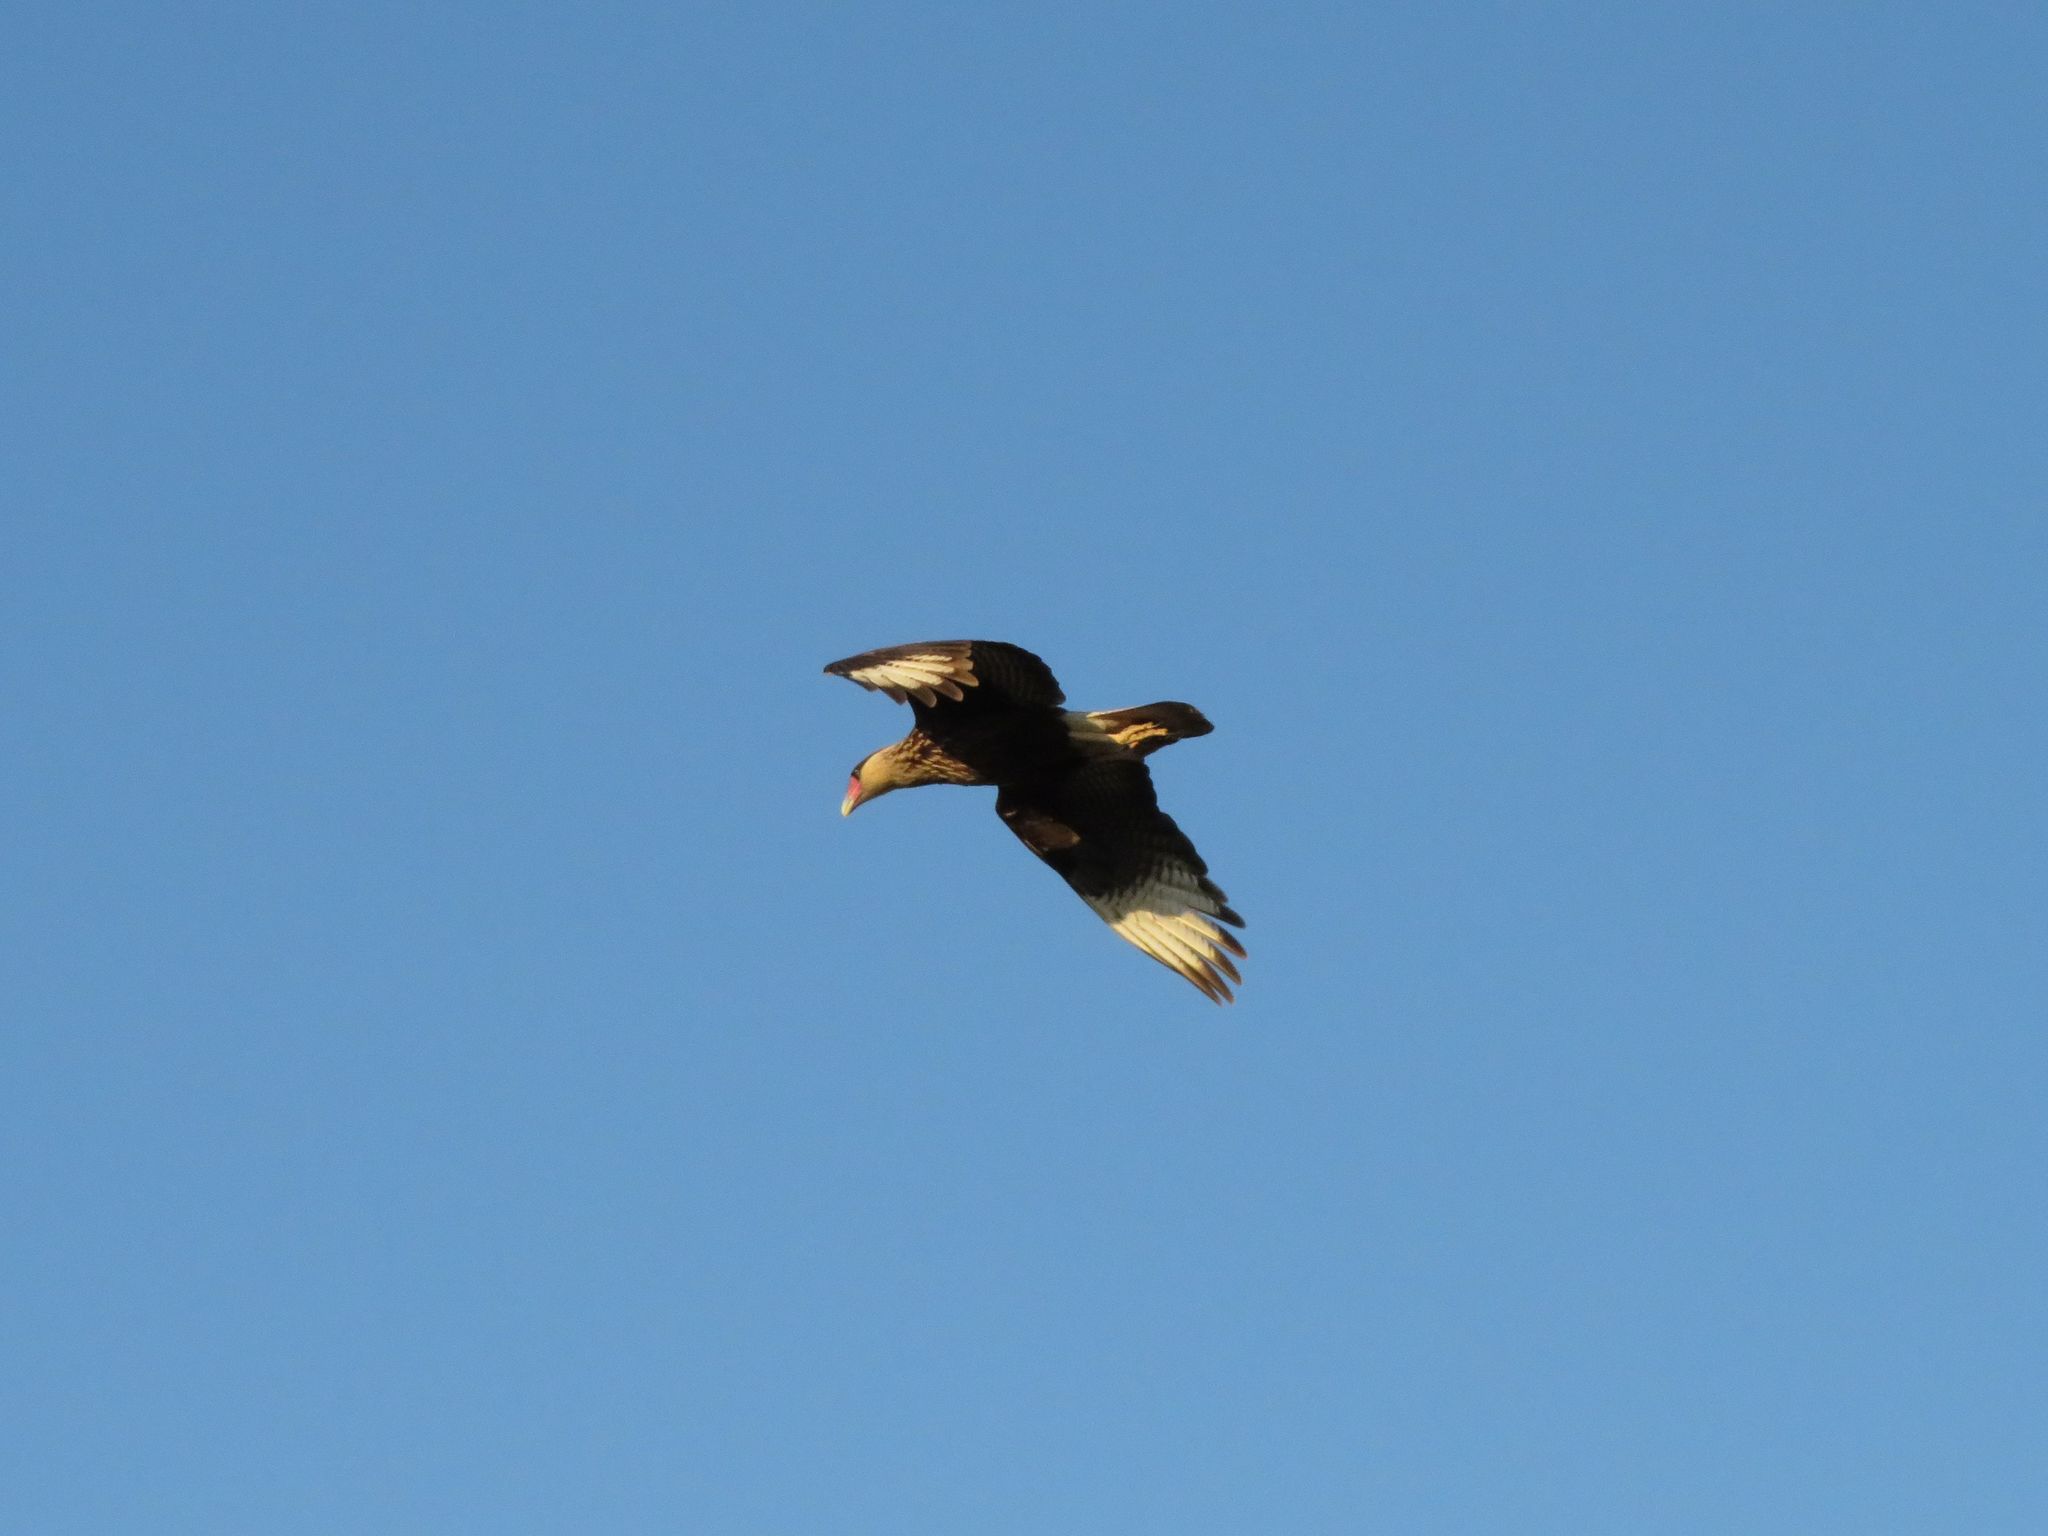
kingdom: Animalia
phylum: Chordata
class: Aves
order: Falconiformes
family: Falconidae
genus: Caracara
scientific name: Caracara plancus
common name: Southern caracara
